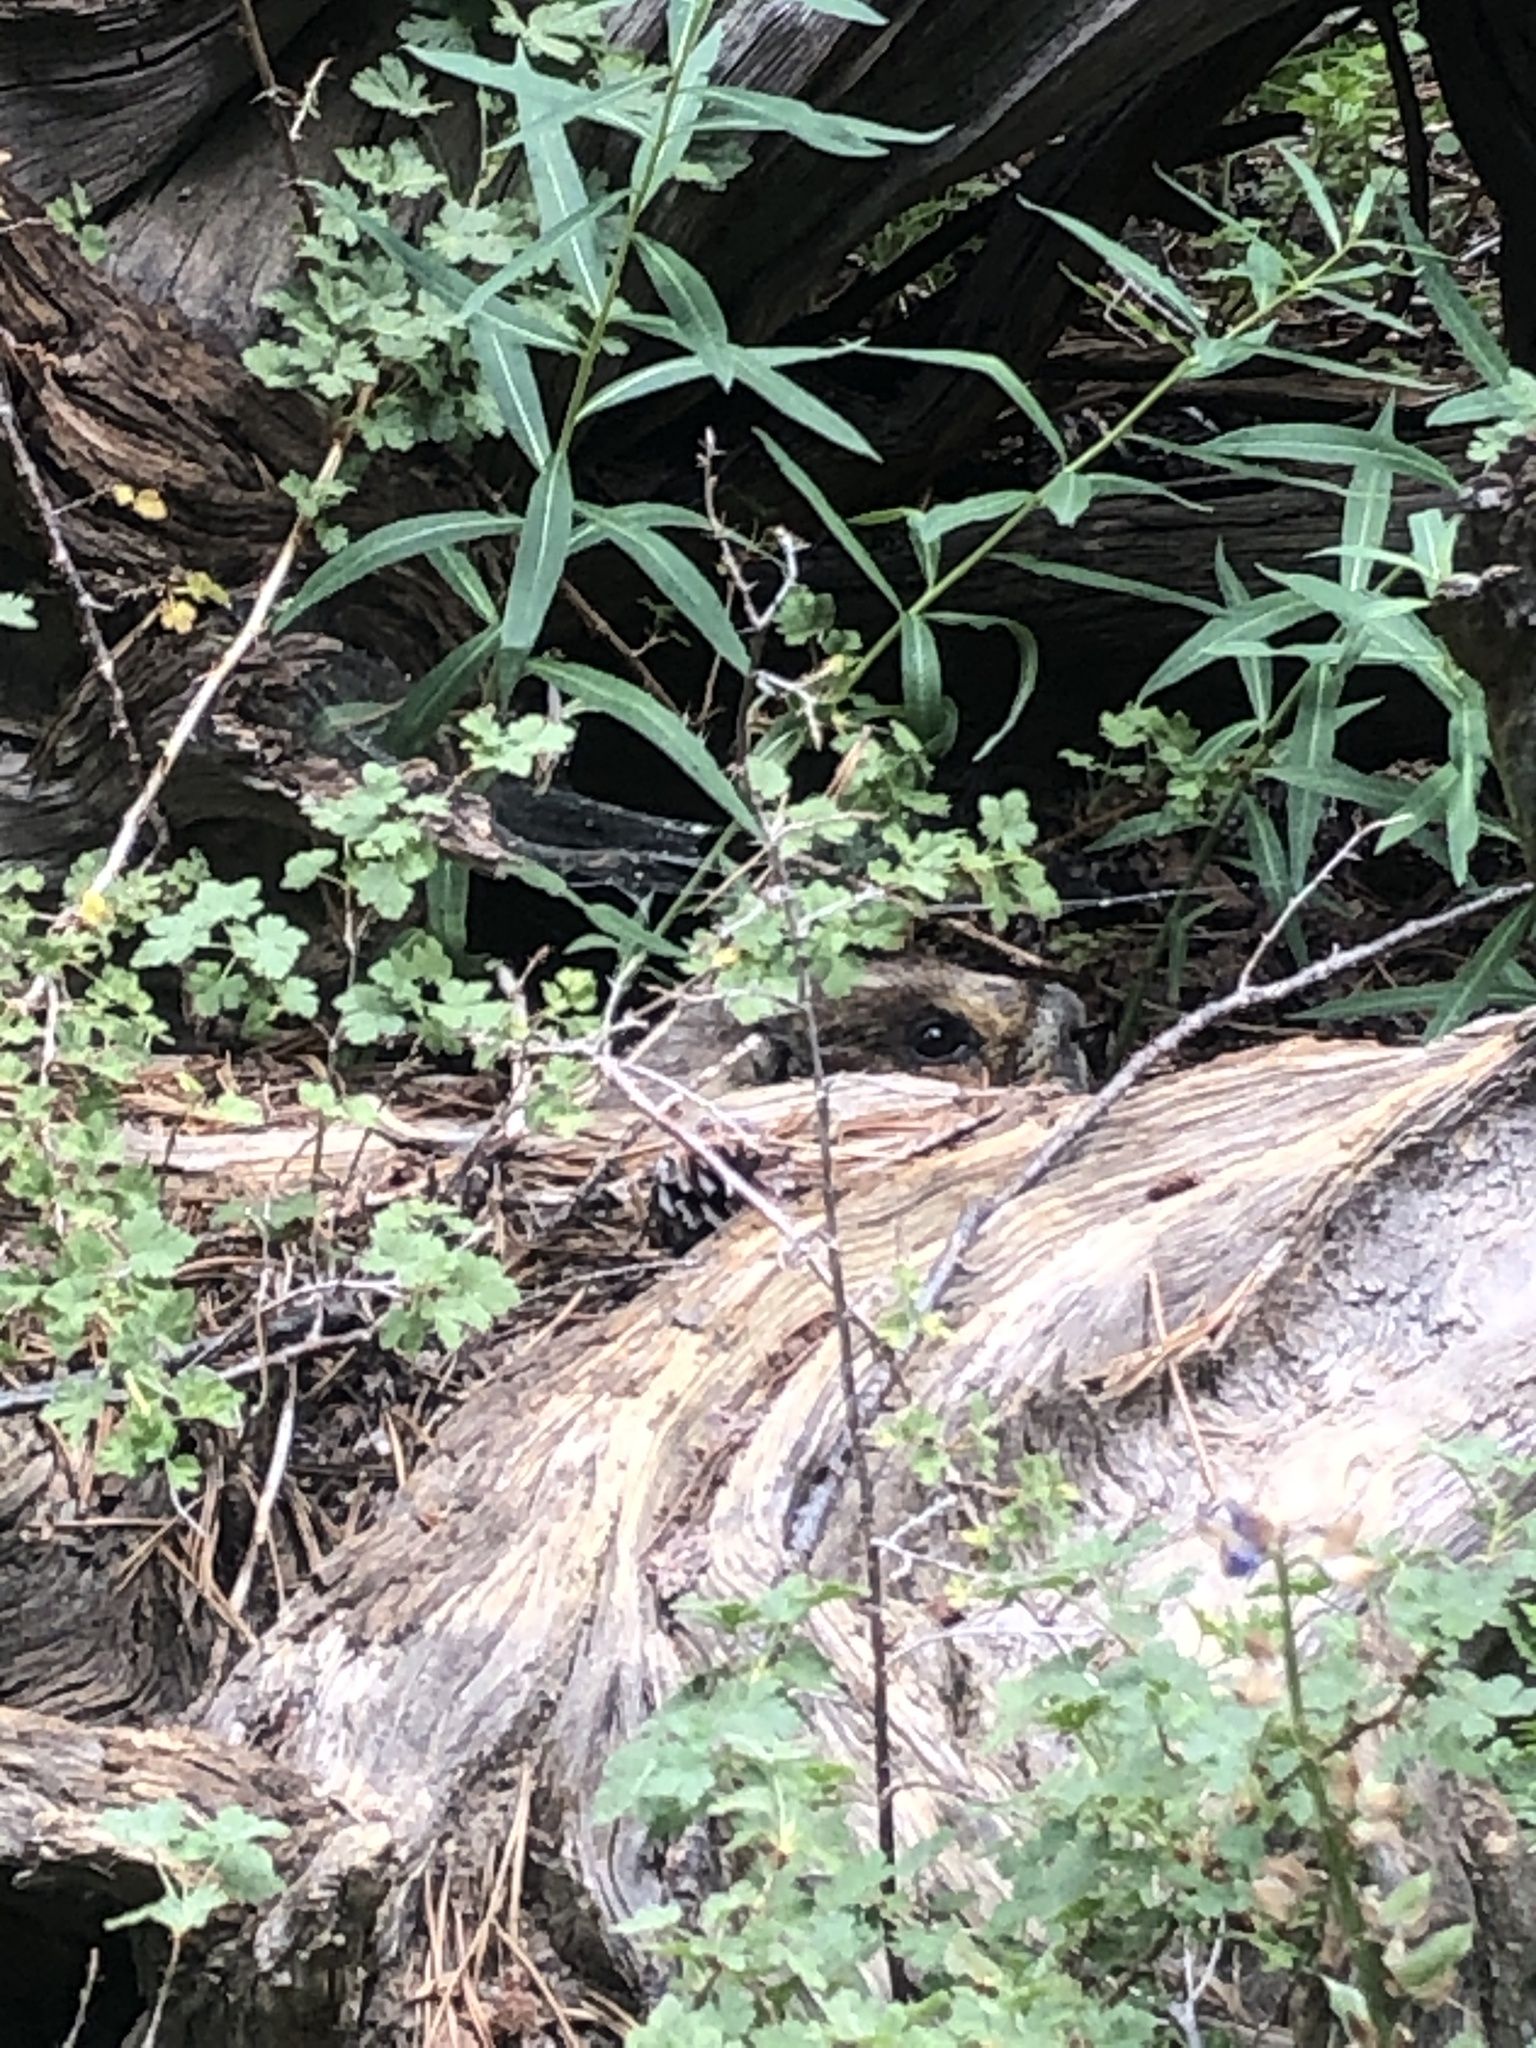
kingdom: Animalia
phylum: Chordata
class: Mammalia
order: Rodentia
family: Sciuridae
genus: Marmota
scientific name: Marmota flaviventris
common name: Yellow-bellied marmot
